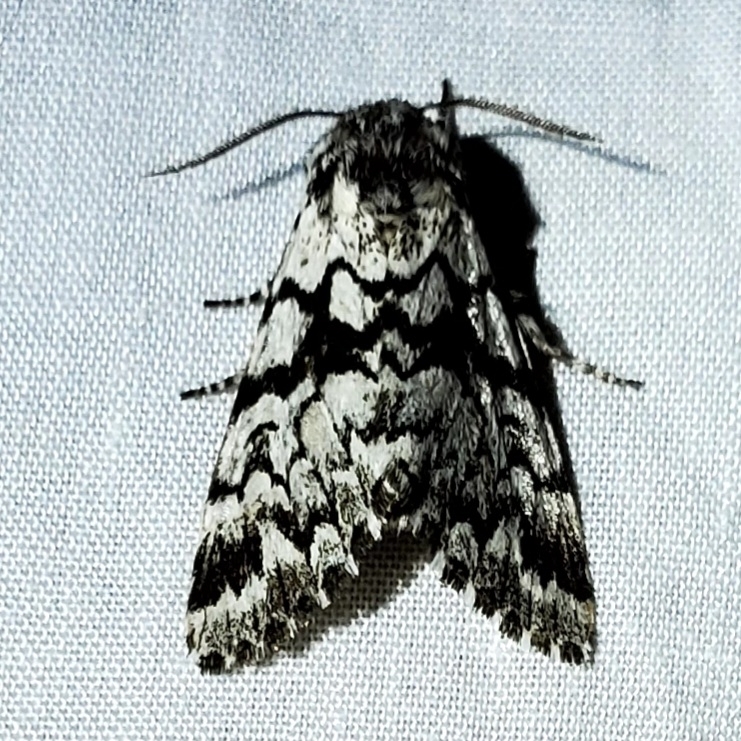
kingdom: Animalia
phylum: Arthropoda
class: Insecta
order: Lepidoptera
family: Noctuidae
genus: Panthea
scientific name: Panthea acronyctoides
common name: Black zigzag moth
